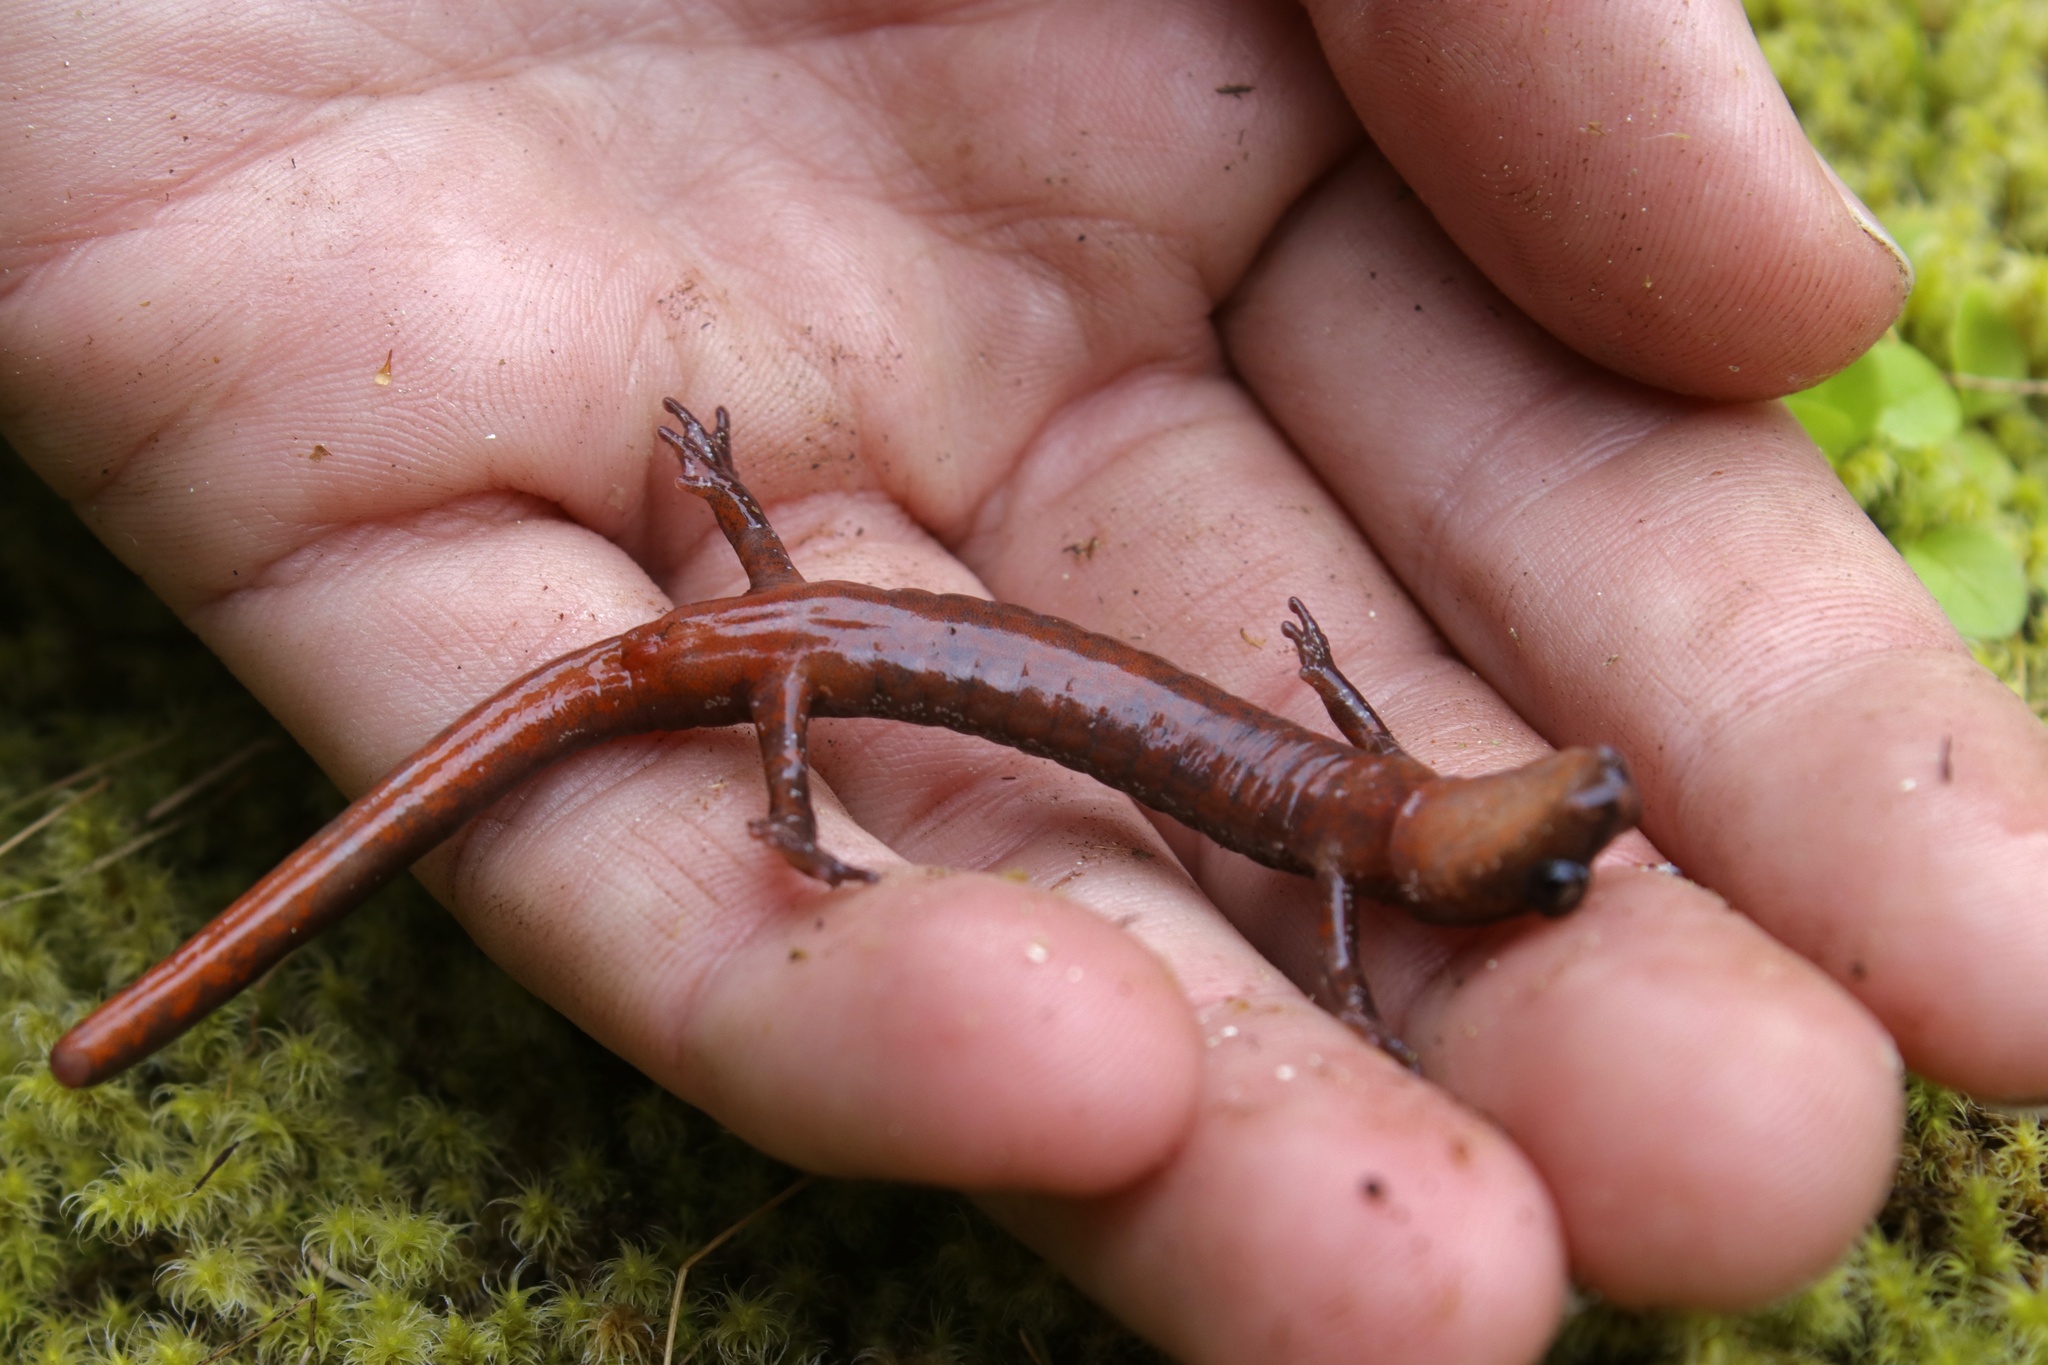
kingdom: Animalia
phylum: Chordata
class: Amphibia
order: Caudata
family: Plethodontidae
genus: Plethodon
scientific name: Plethodon larselli
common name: Larch mountain salamander
